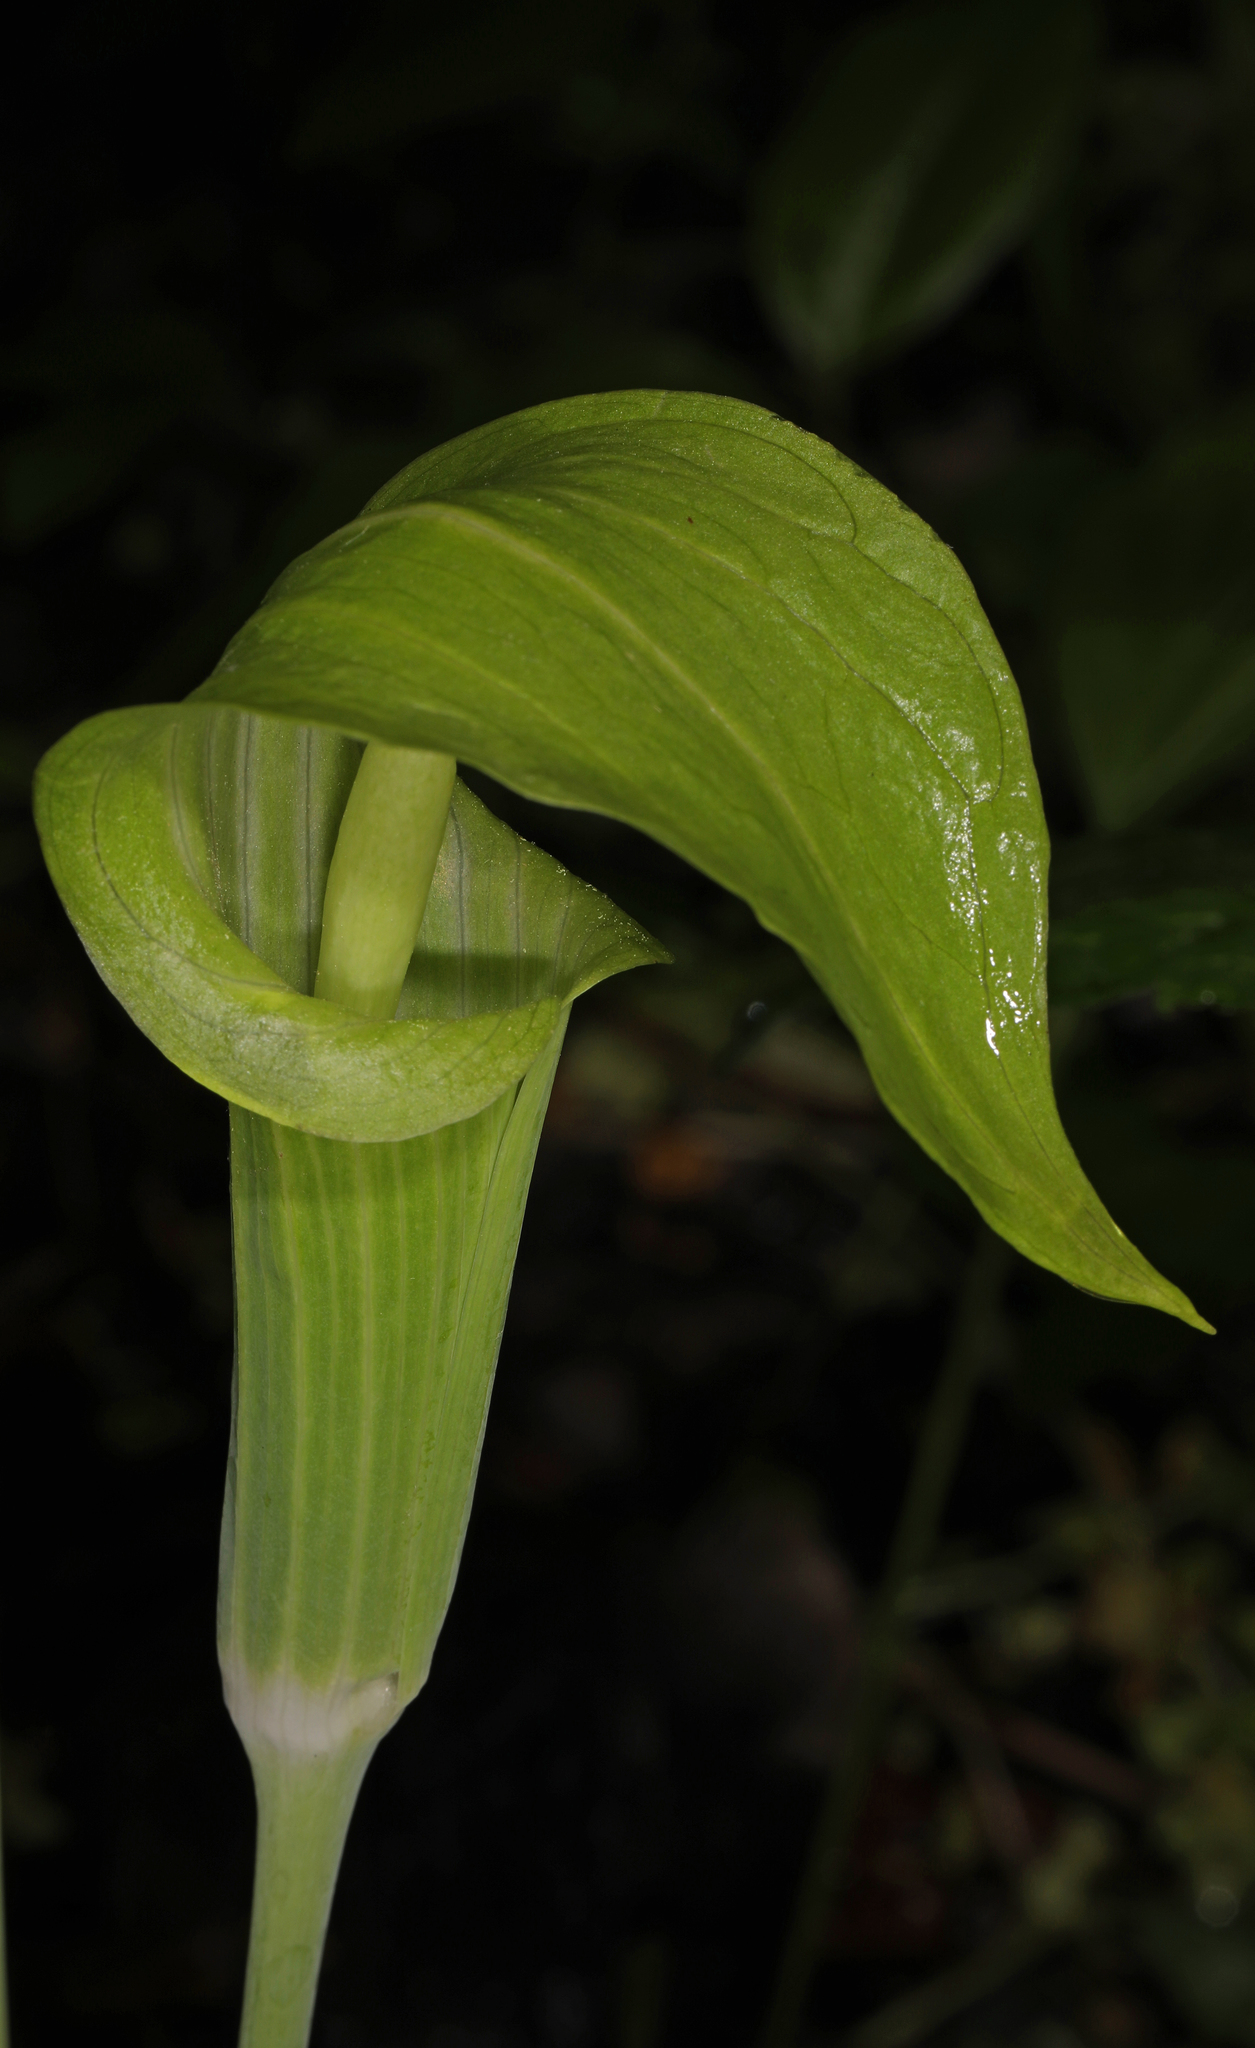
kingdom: Plantae
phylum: Tracheophyta
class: Liliopsida
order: Alismatales
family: Araceae
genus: Arisaema
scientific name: Arisaema triphyllum
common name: Jack-in-the-pulpit
